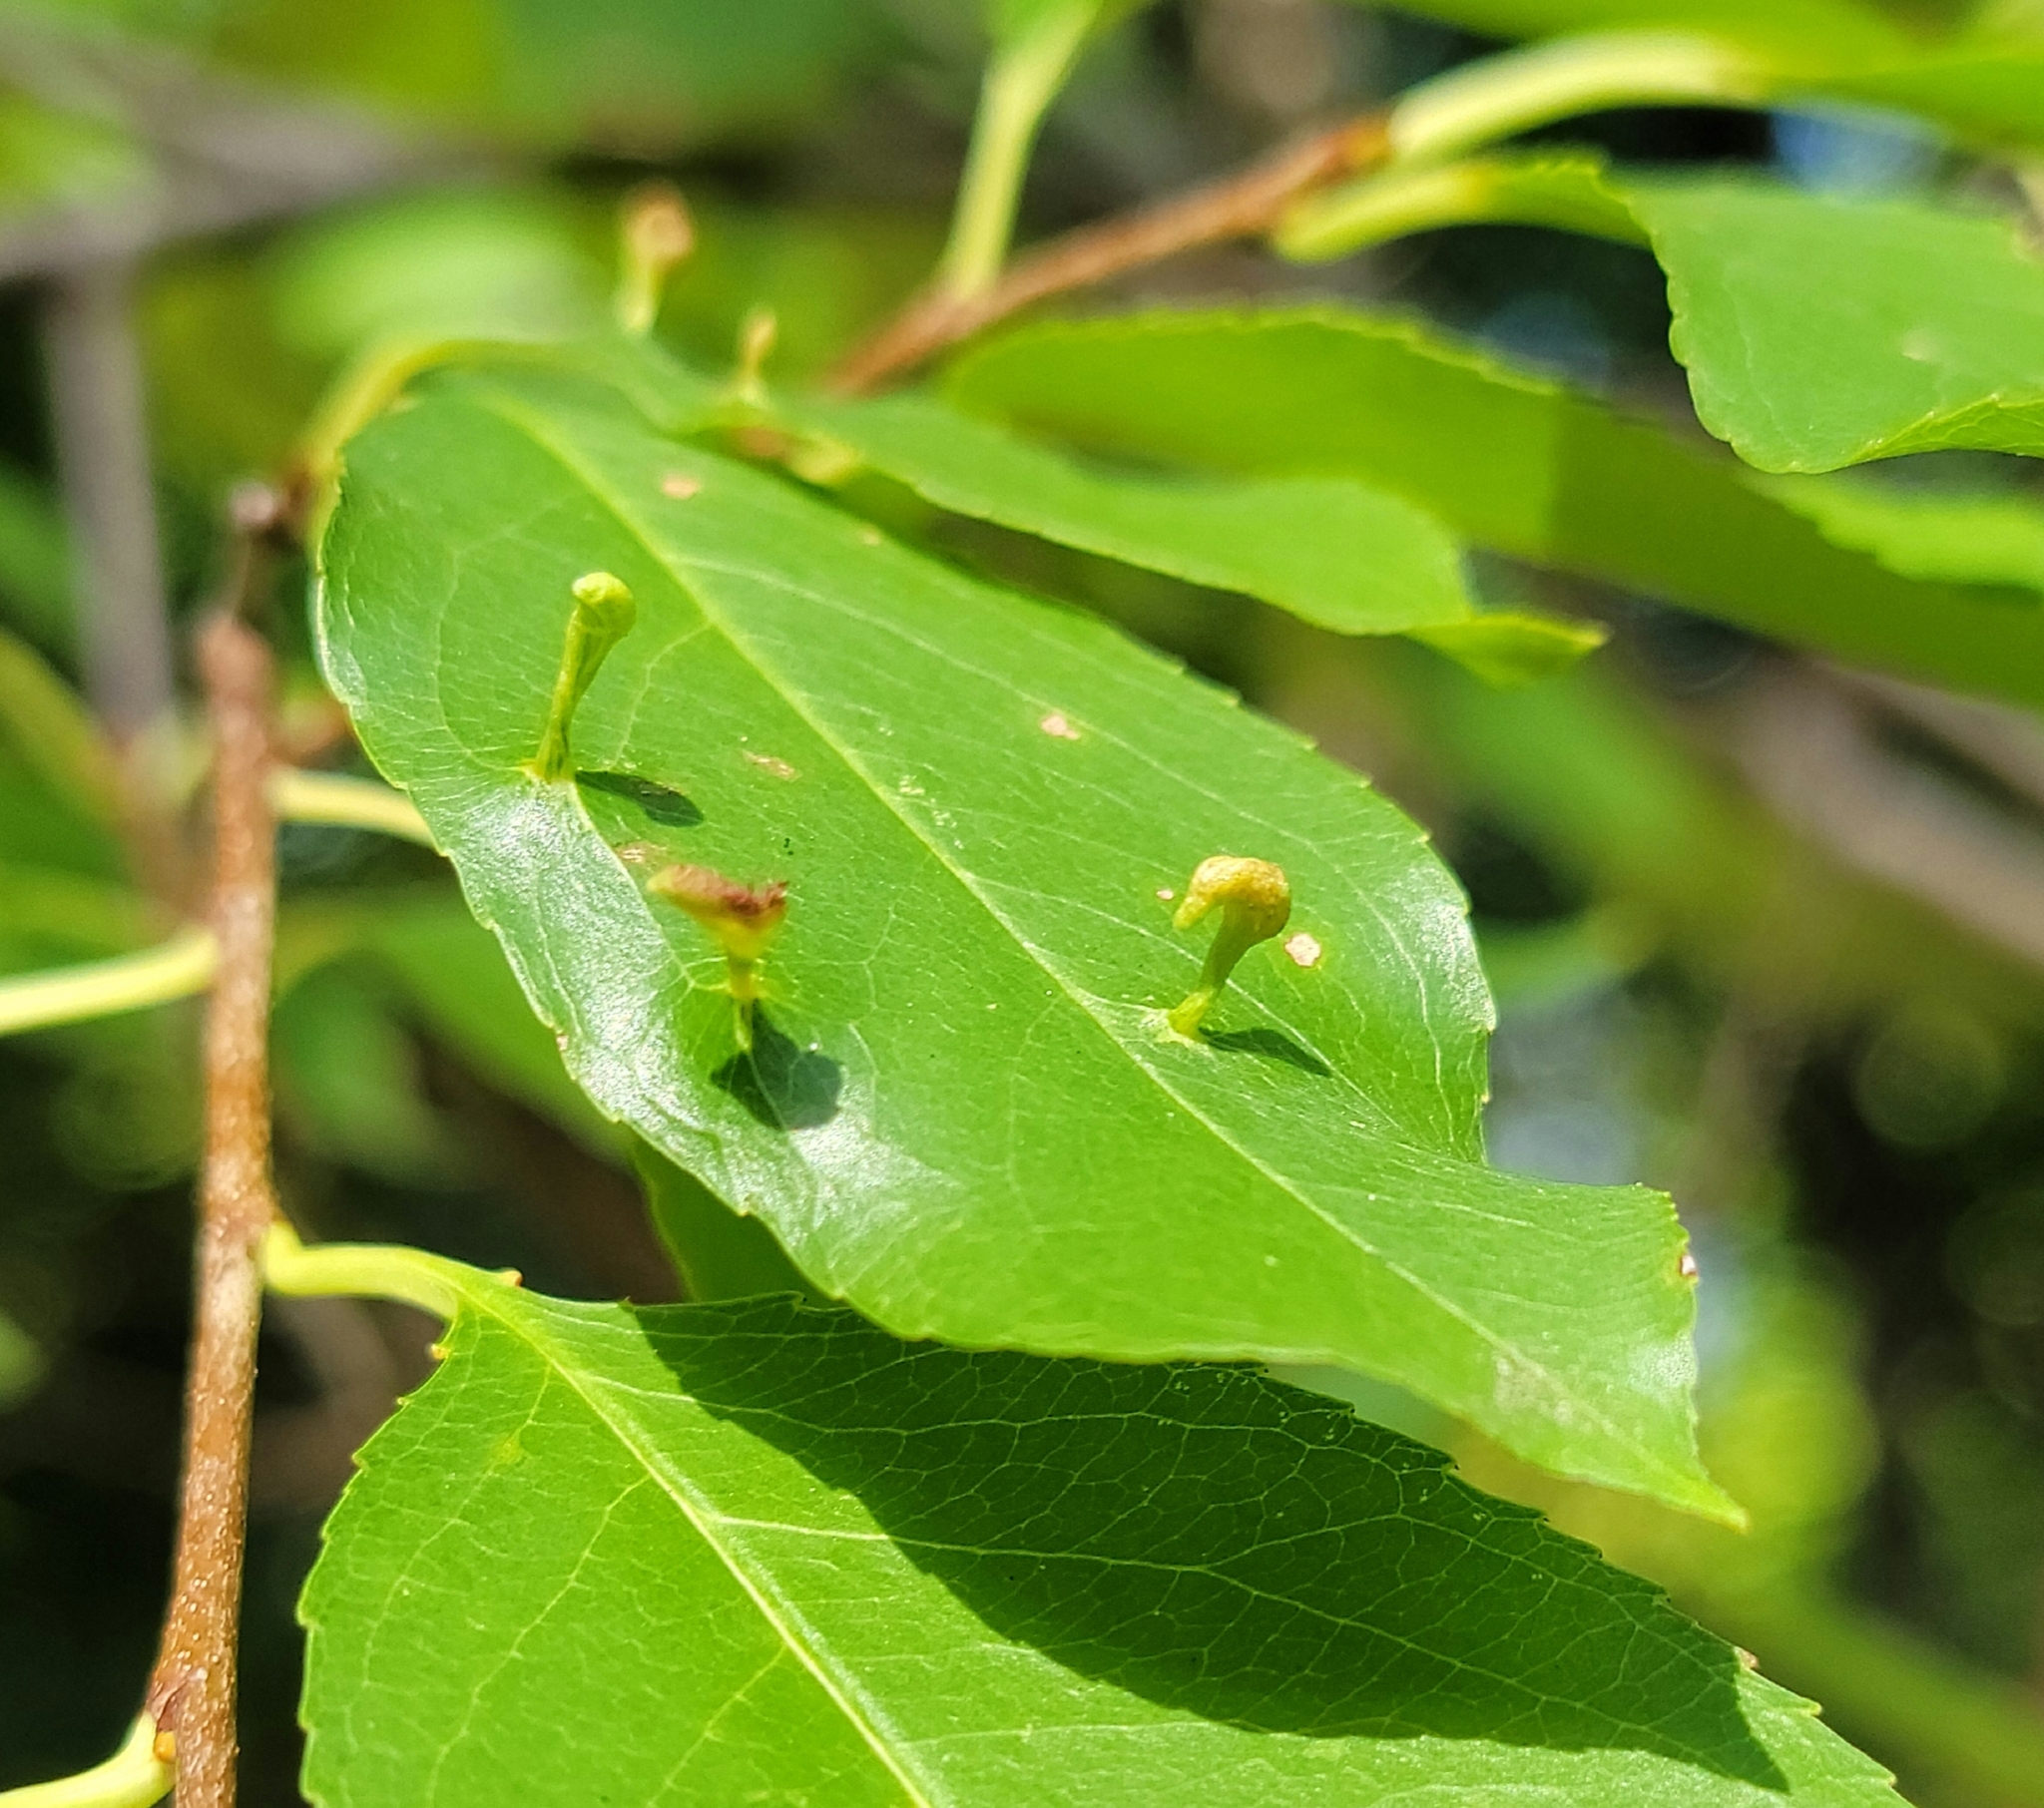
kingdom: Animalia
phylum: Arthropoda
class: Arachnida
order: Trombidiformes
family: Eriophyidae
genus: Eriophyes
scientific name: Eriophyes
